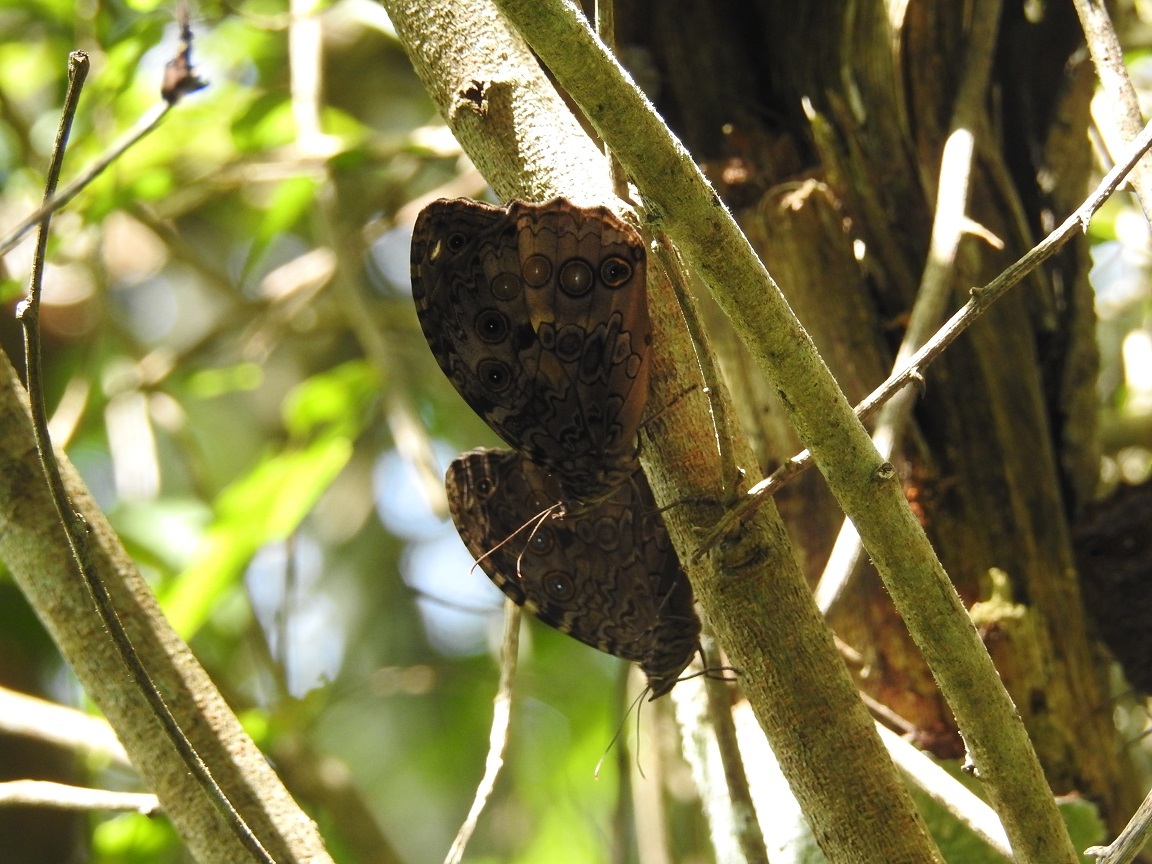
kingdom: Animalia
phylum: Arthropoda
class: Insecta
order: Lepidoptera
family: Nymphalidae
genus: Manataria
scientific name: Manataria maculata
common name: White-spotted satyr
